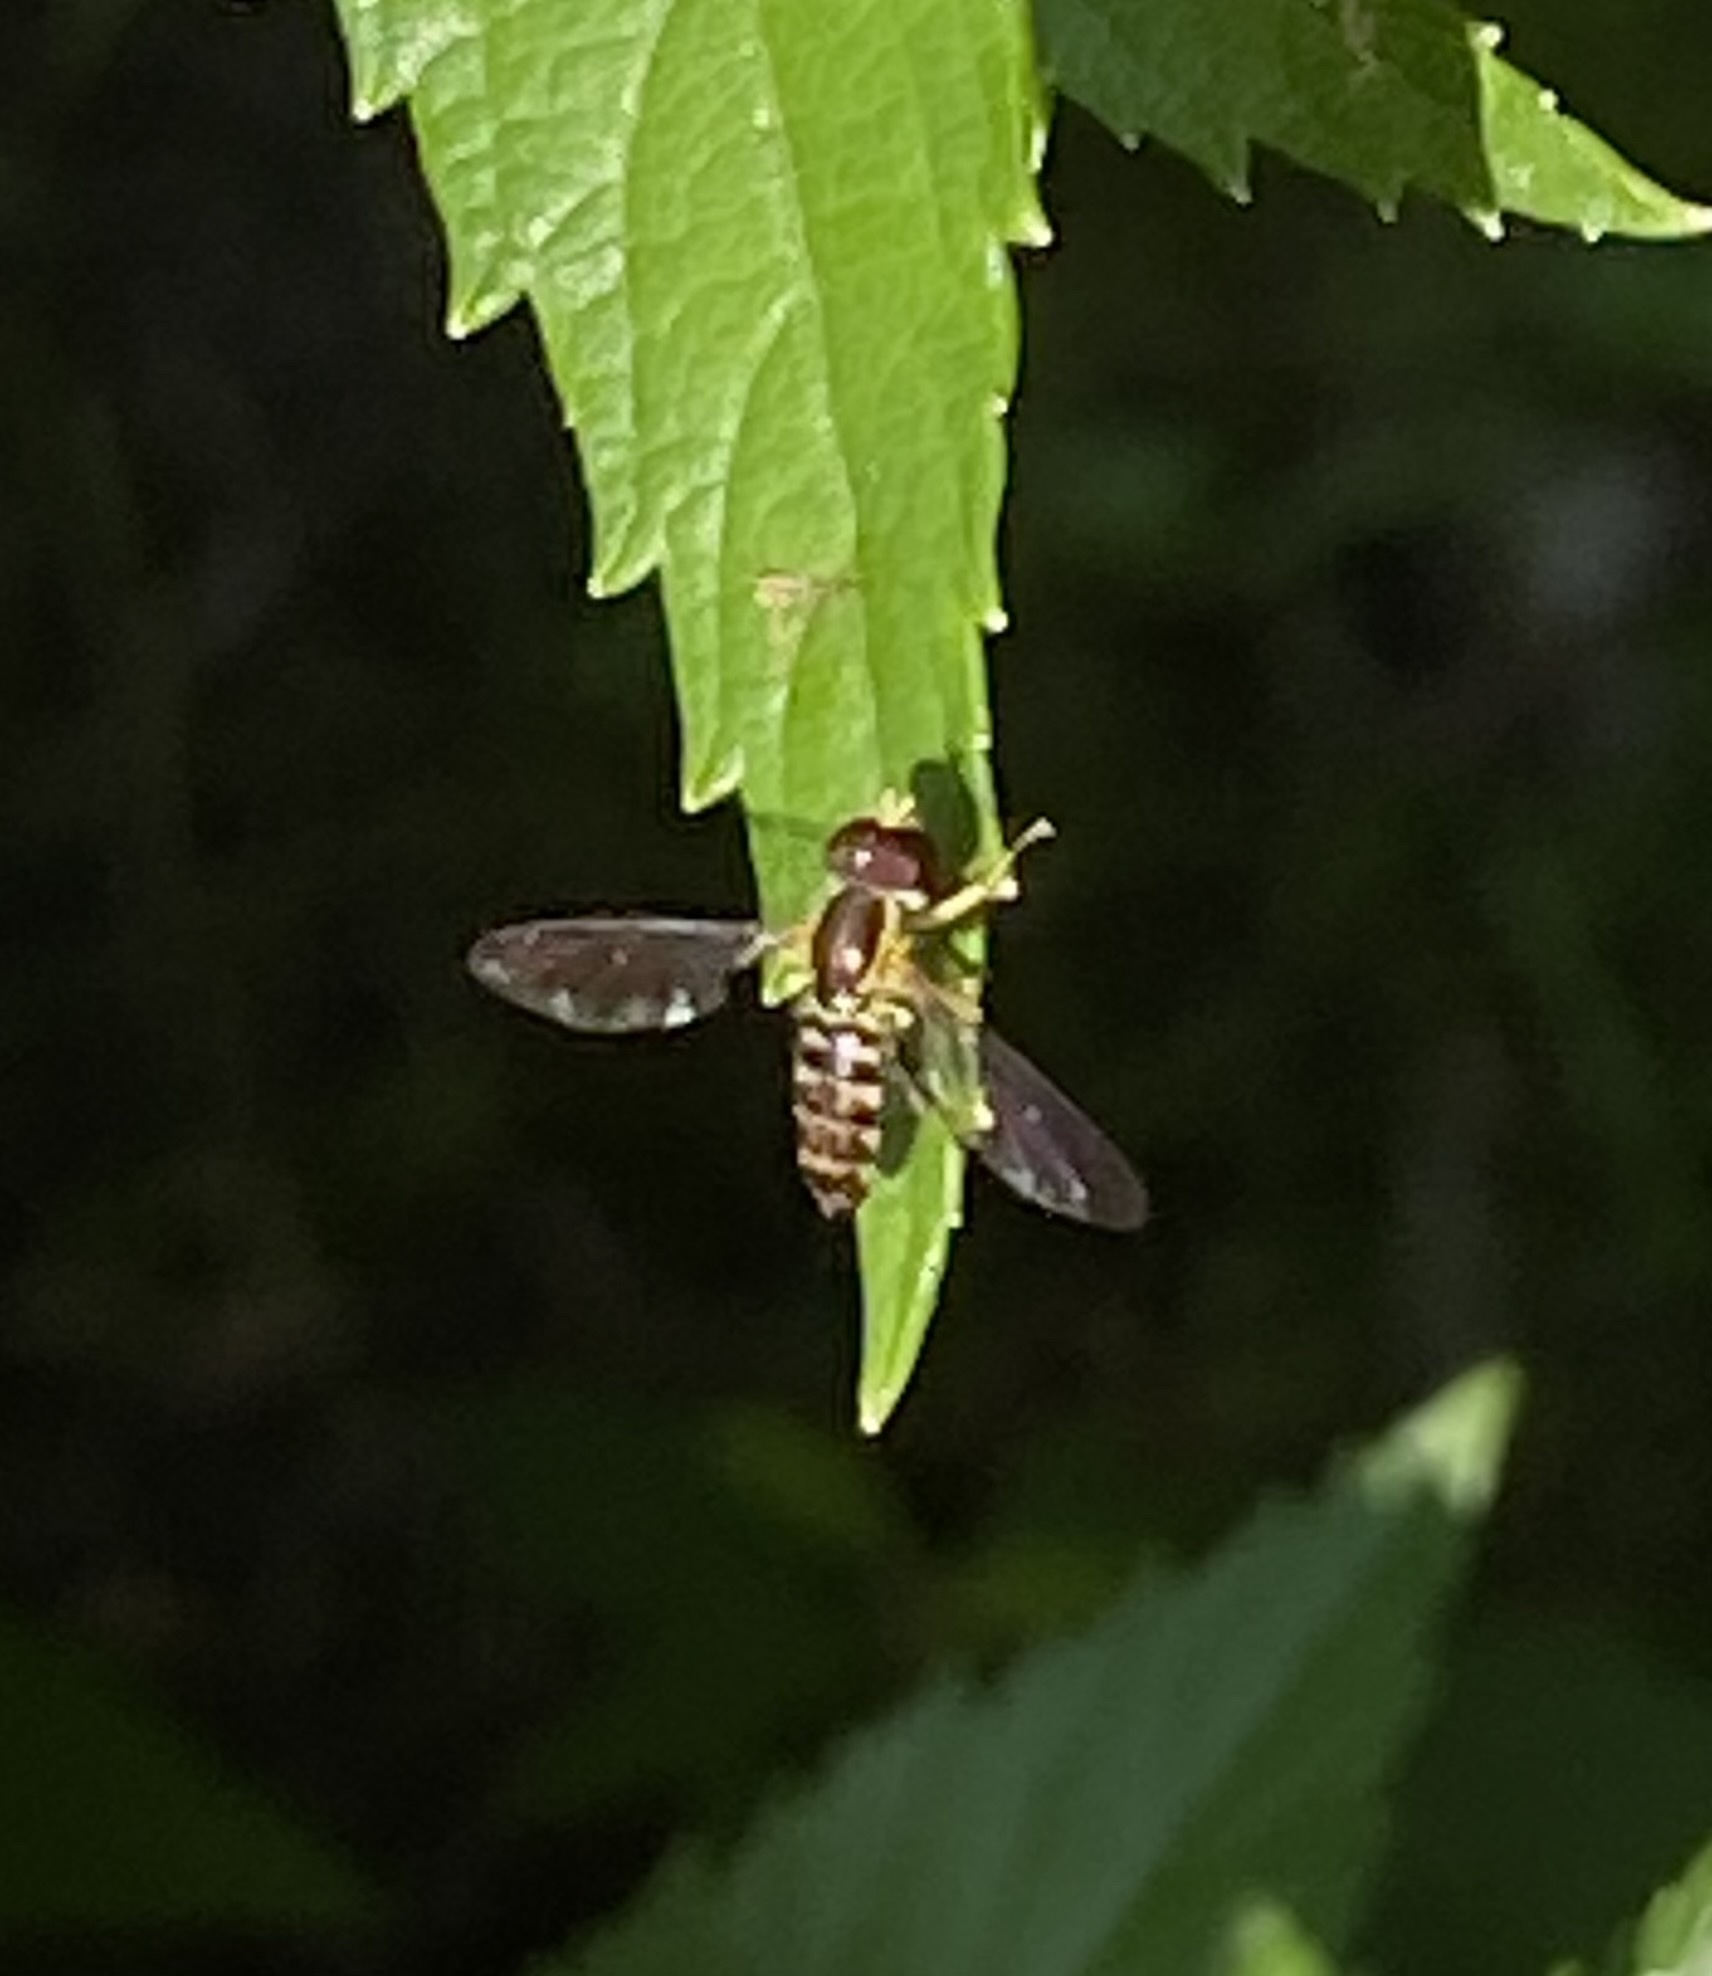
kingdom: Animalia
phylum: Arthropoda
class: Insecta
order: Diptera
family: Syrphidae
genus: Toxomerus
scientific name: Toxomerus geminatus
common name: Eastern calligrapher
